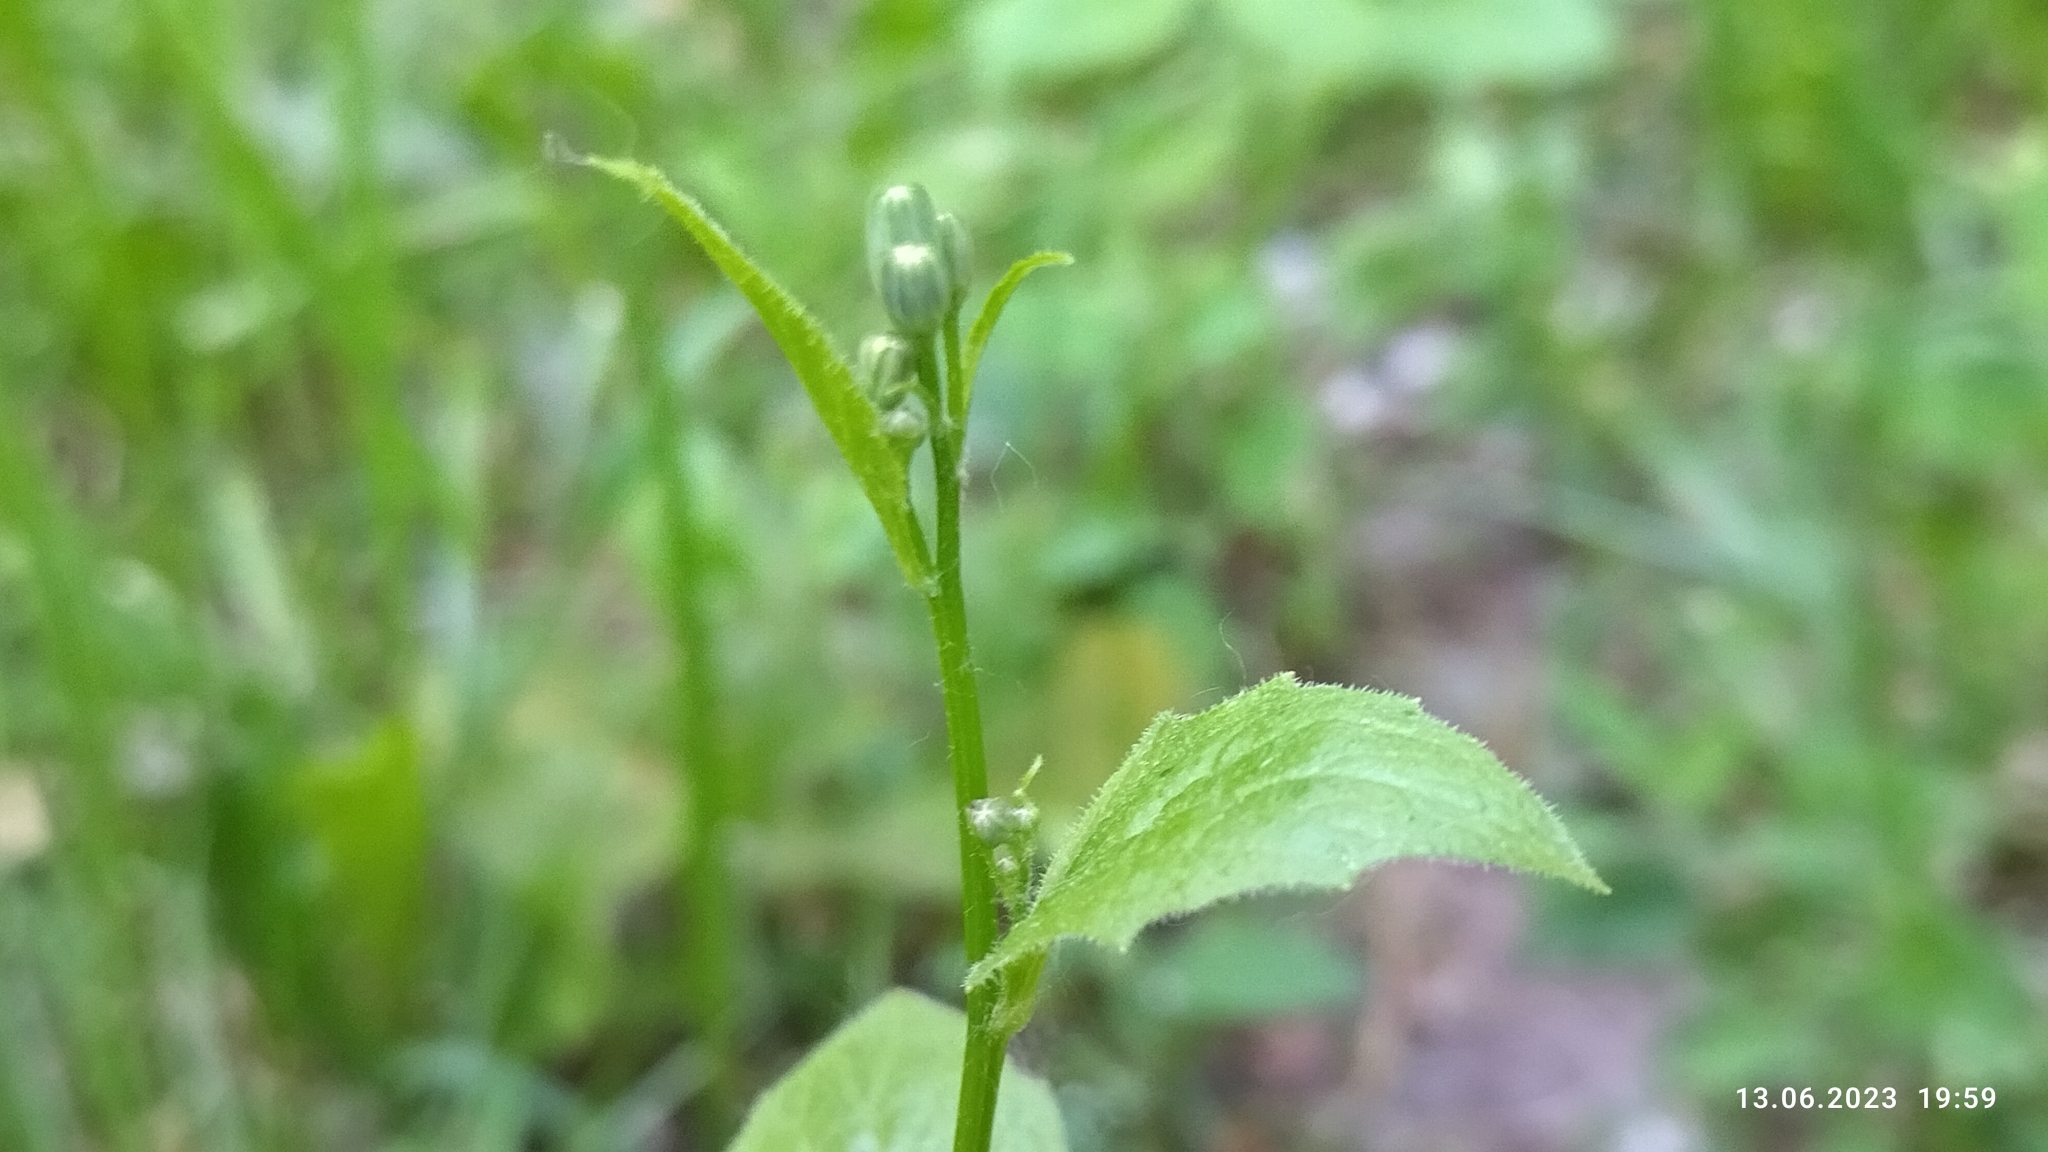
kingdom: Plantae
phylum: Tracheophyta
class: Magnoliopsida
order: Asterales
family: Asteraceae
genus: Lapsana
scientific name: Lapsana communis
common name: Nipplewort
